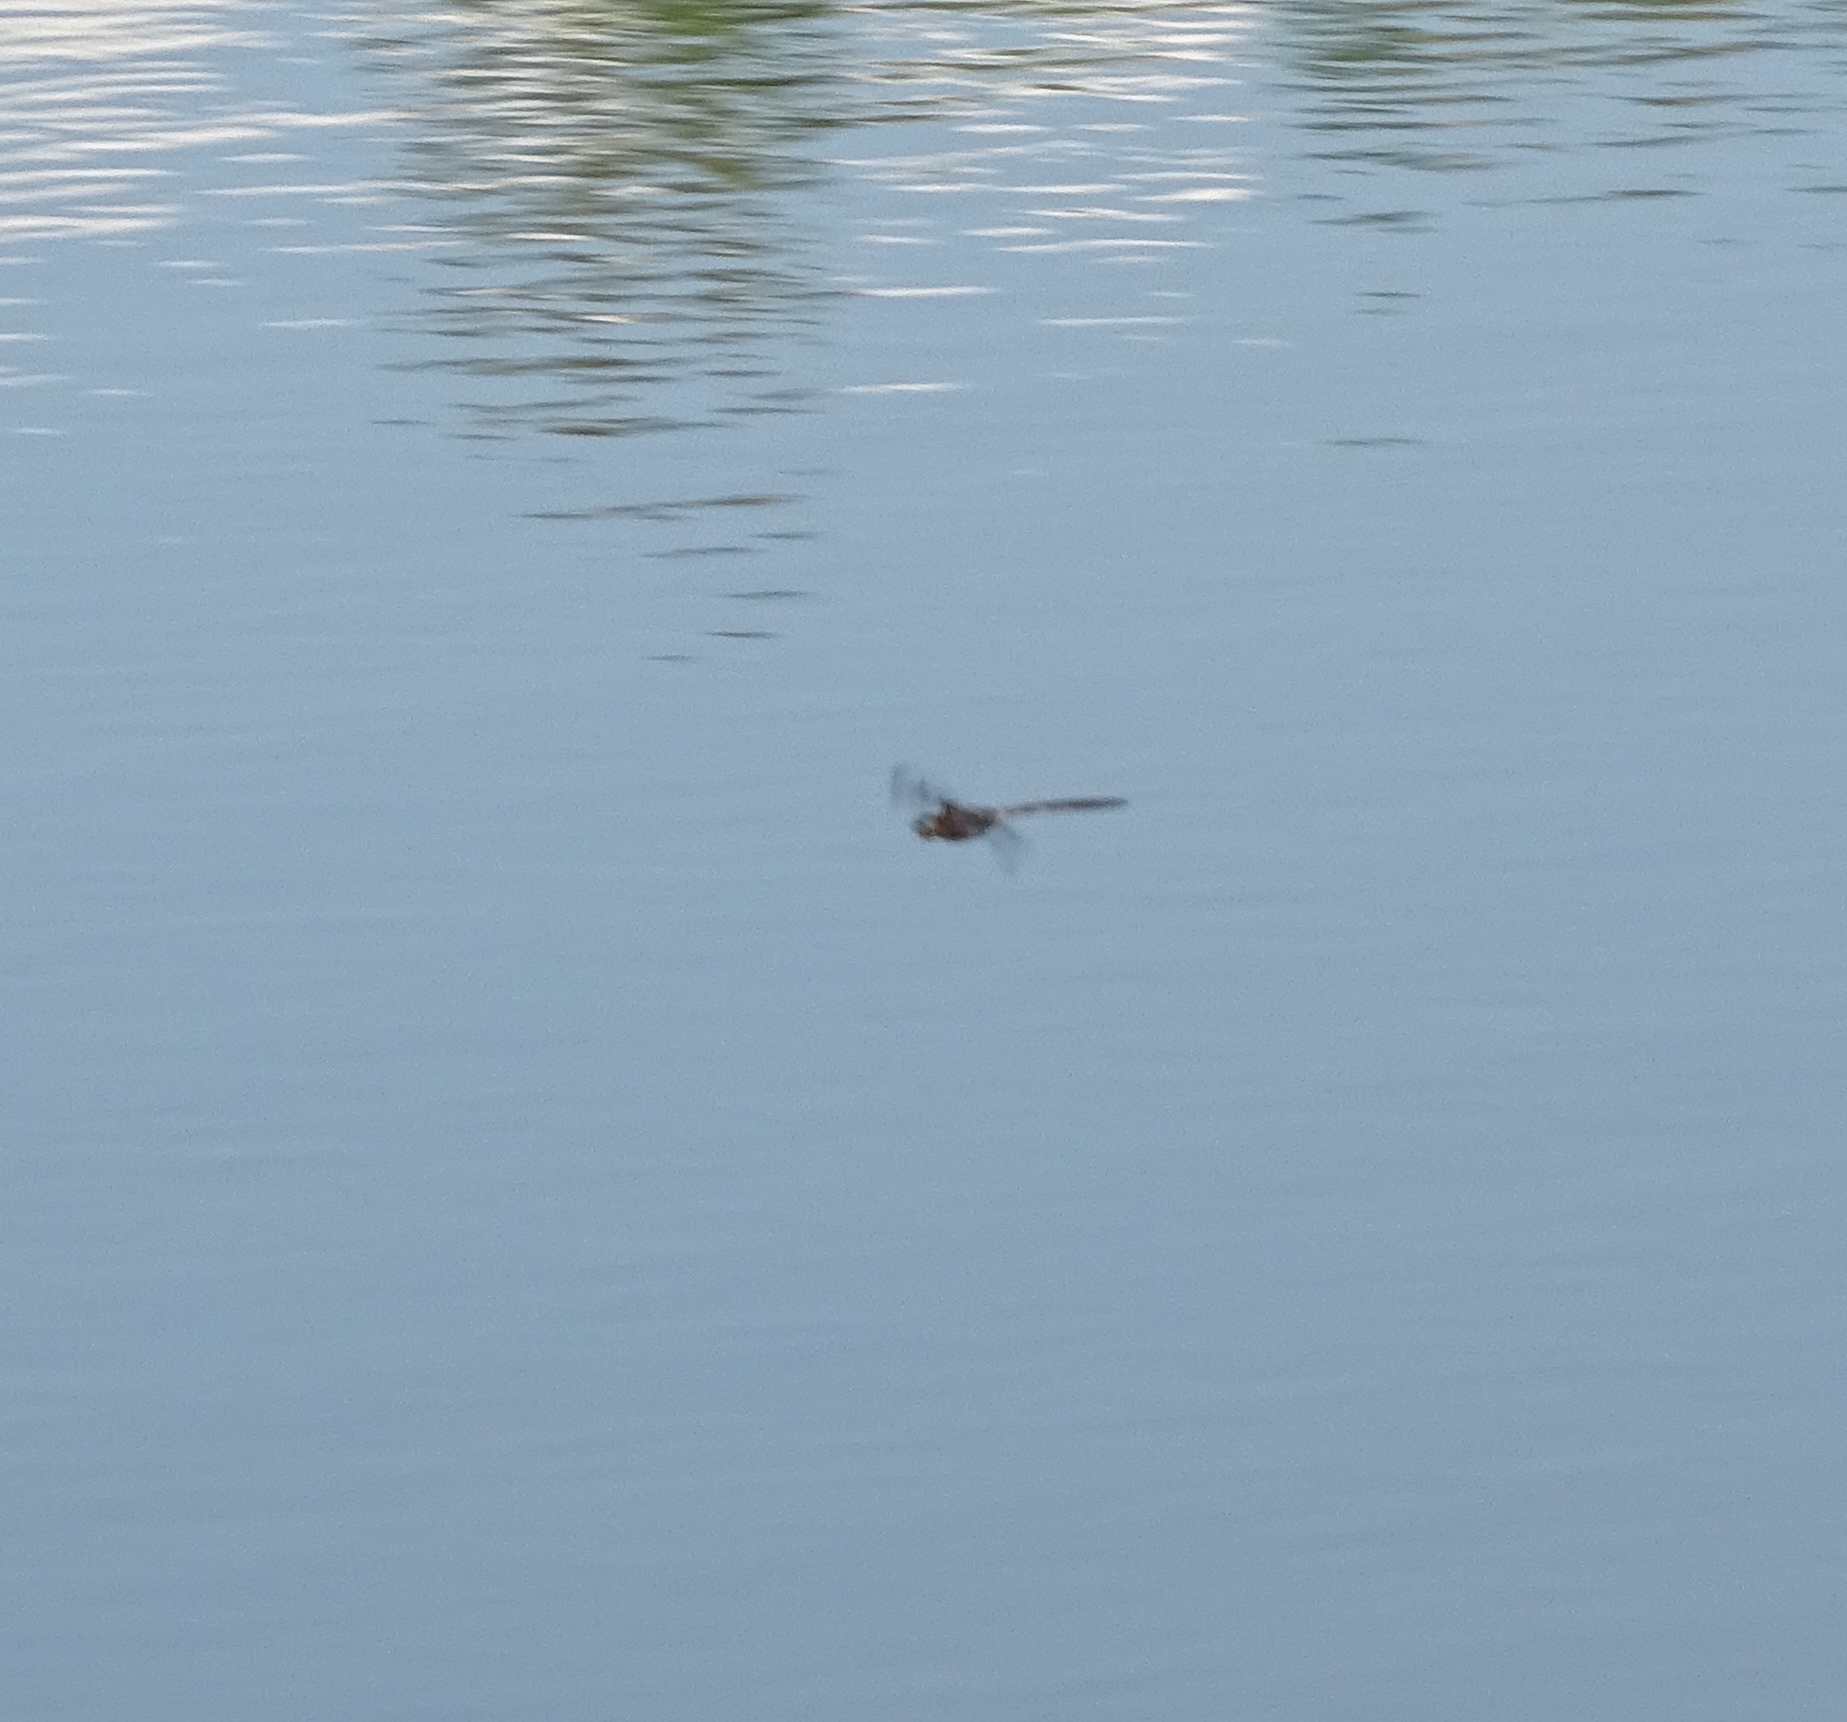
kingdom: Animalia
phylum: Arthropoda
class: Insecta
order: Odonata
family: Corduliidae
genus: Epitheca
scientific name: Epitheca princeps
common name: Prince baskettail
